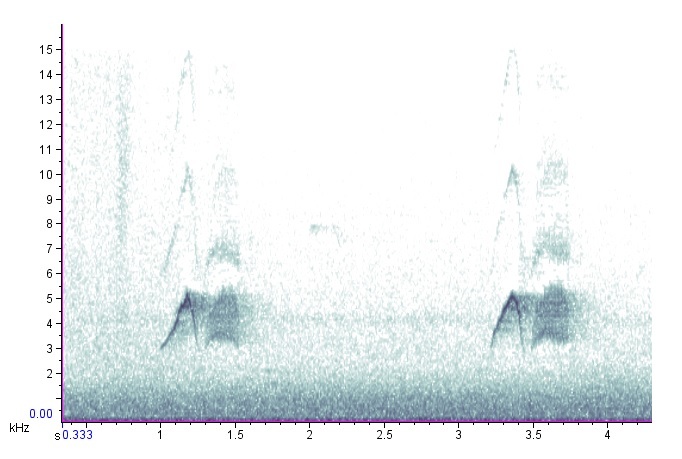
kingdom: Animalia
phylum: Chordata
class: Aves
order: Passeriformes
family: Tyrannidae
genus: Sayornis
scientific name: Sayornis phoebe
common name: Eastern phoebe
